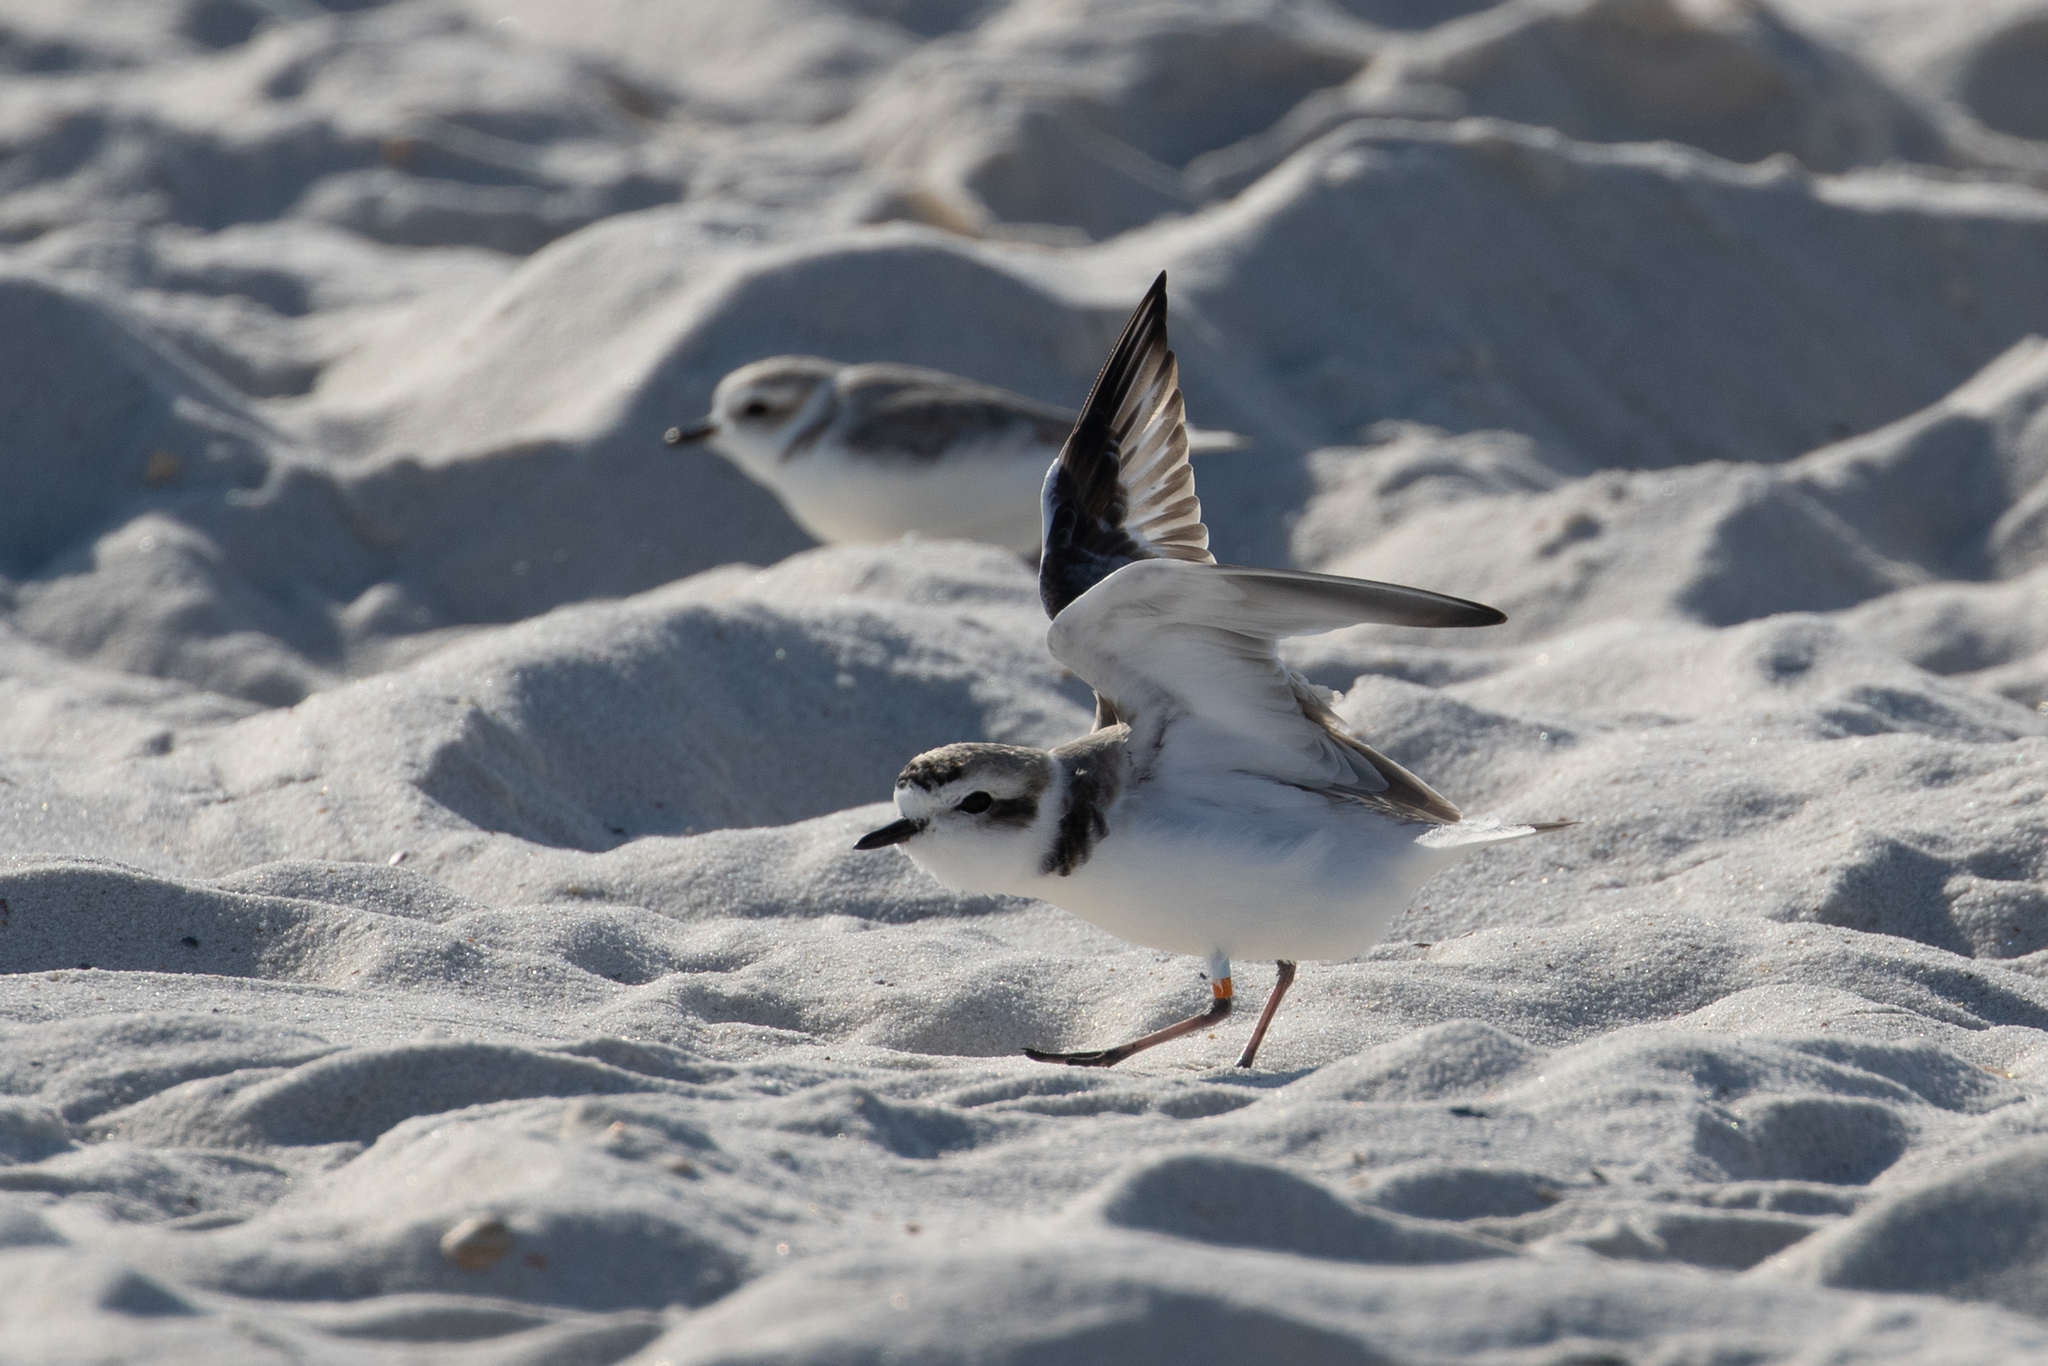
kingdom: Animalia
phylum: Chordata
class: Aves
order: Charadriiformes
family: Charadriidae
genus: Anarhynchus
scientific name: Anarhynchus
